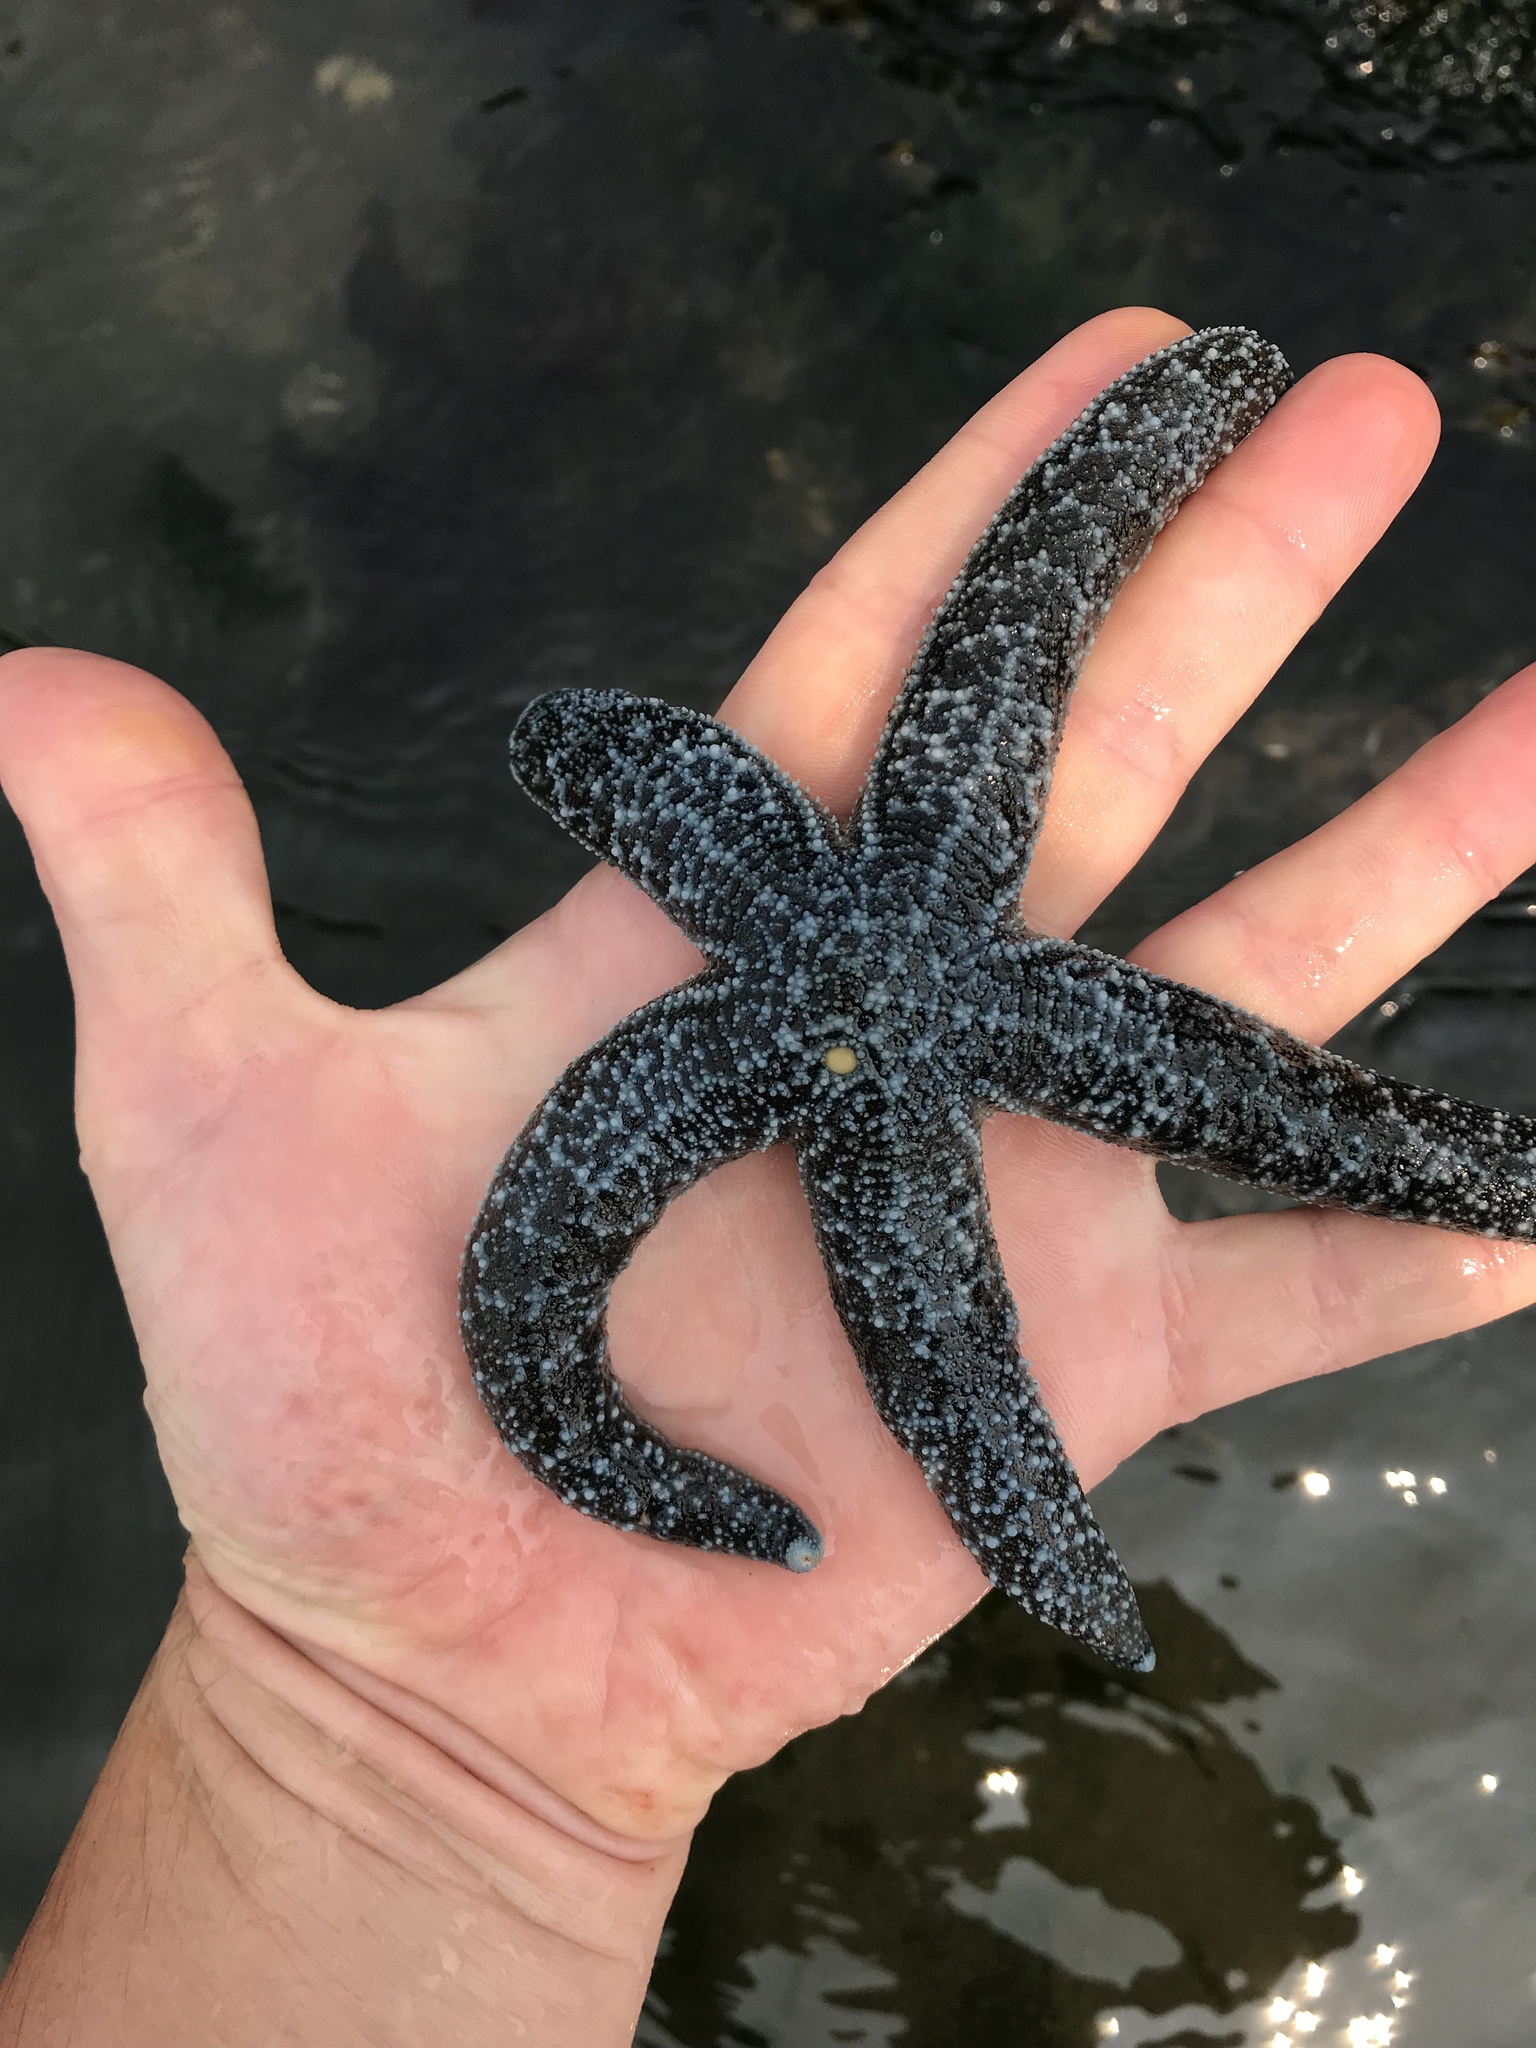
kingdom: Animalia
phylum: Echinodermata
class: Asteroidea
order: Forcipulatida
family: Asteriidae
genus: Evasterias
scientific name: Evasterias troschelii
